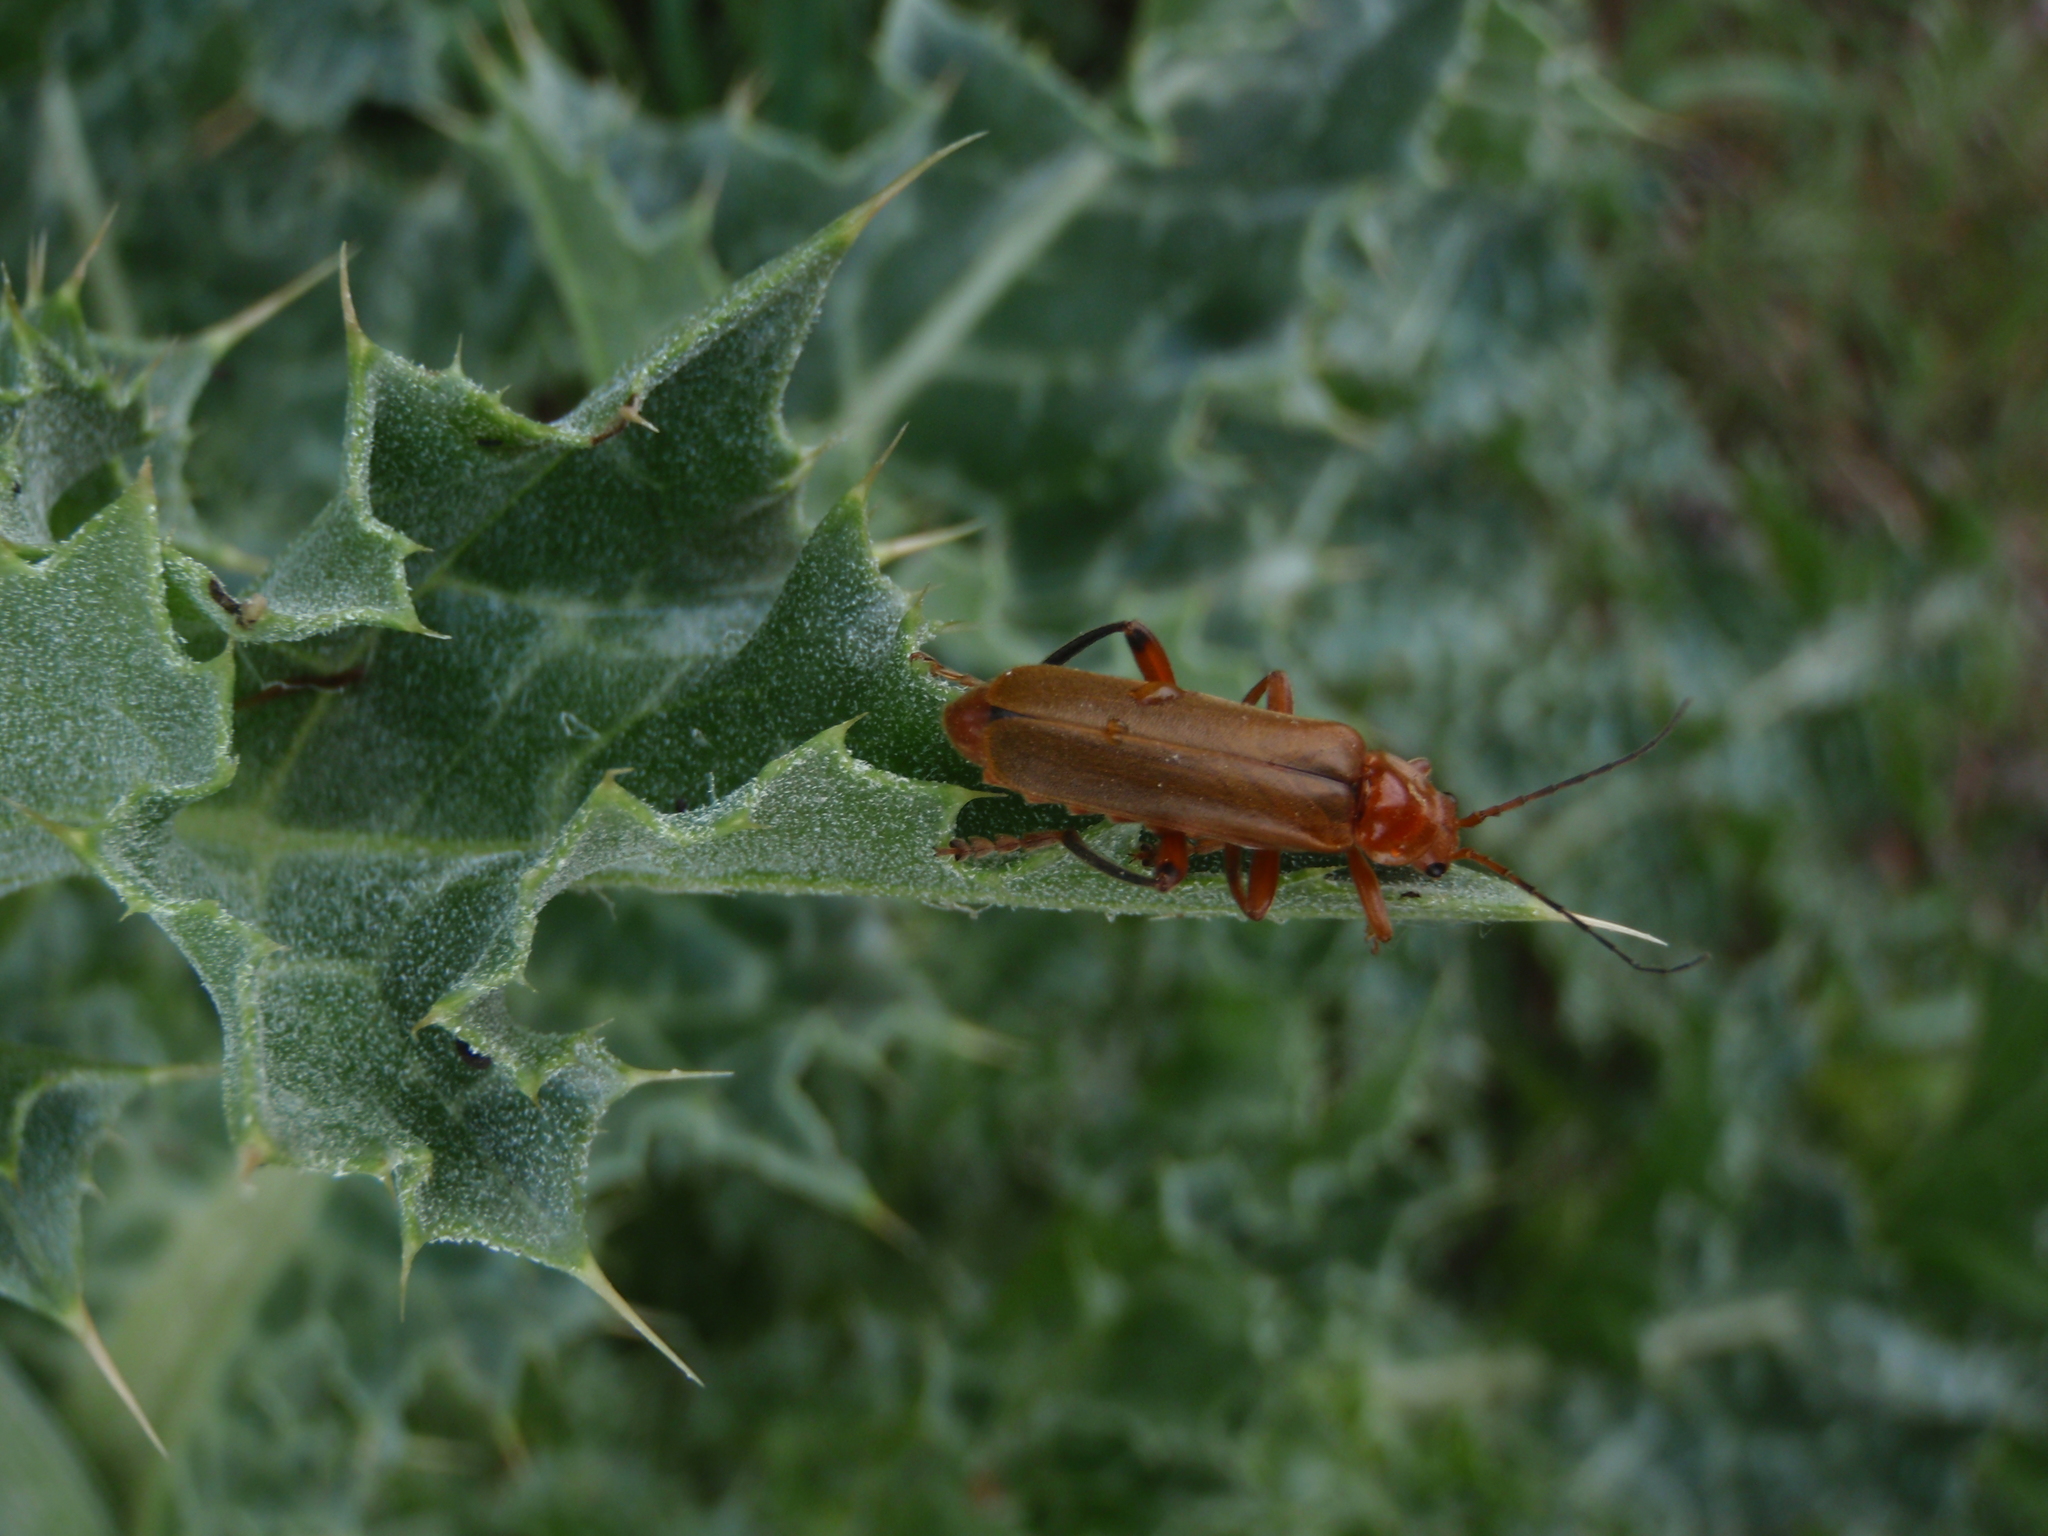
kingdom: Animalia
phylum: Arthropoda
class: Insecta
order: Coleoptera
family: Cantharidae
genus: Cantharis
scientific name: Cantharis livida
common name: Livid soldier beetle
